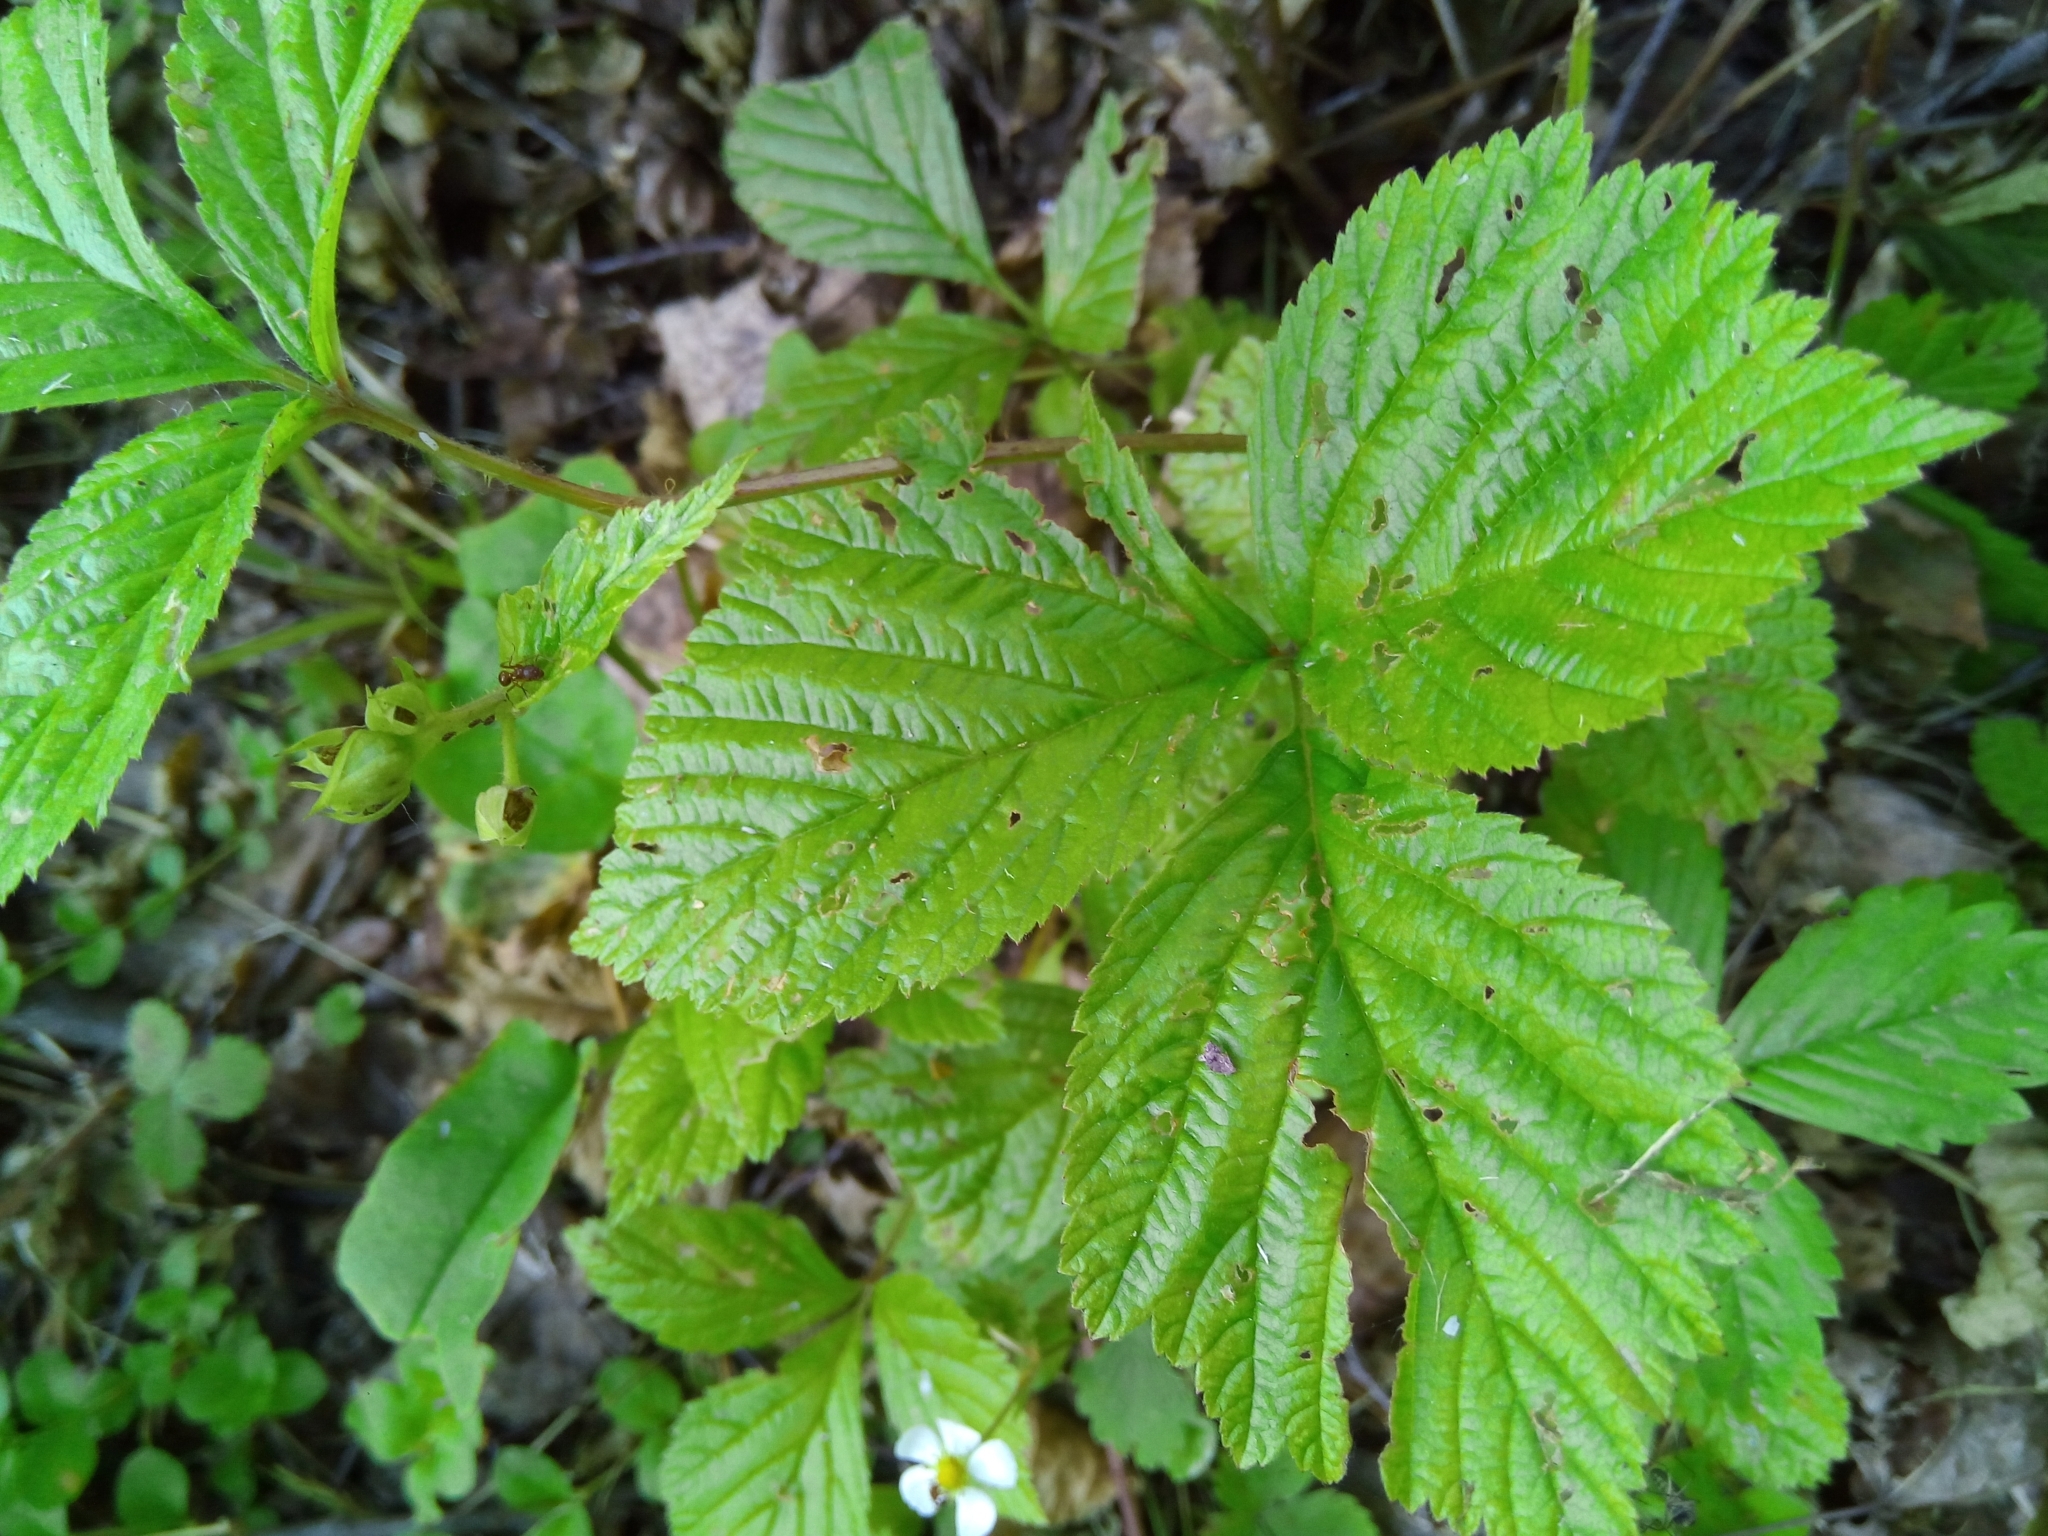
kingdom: Plantae
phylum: Tracheophyta
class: Magnoliopsida
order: Rosales
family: Rosaceae
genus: Rubus
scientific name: Rubus saxatilis
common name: Stone bramble
